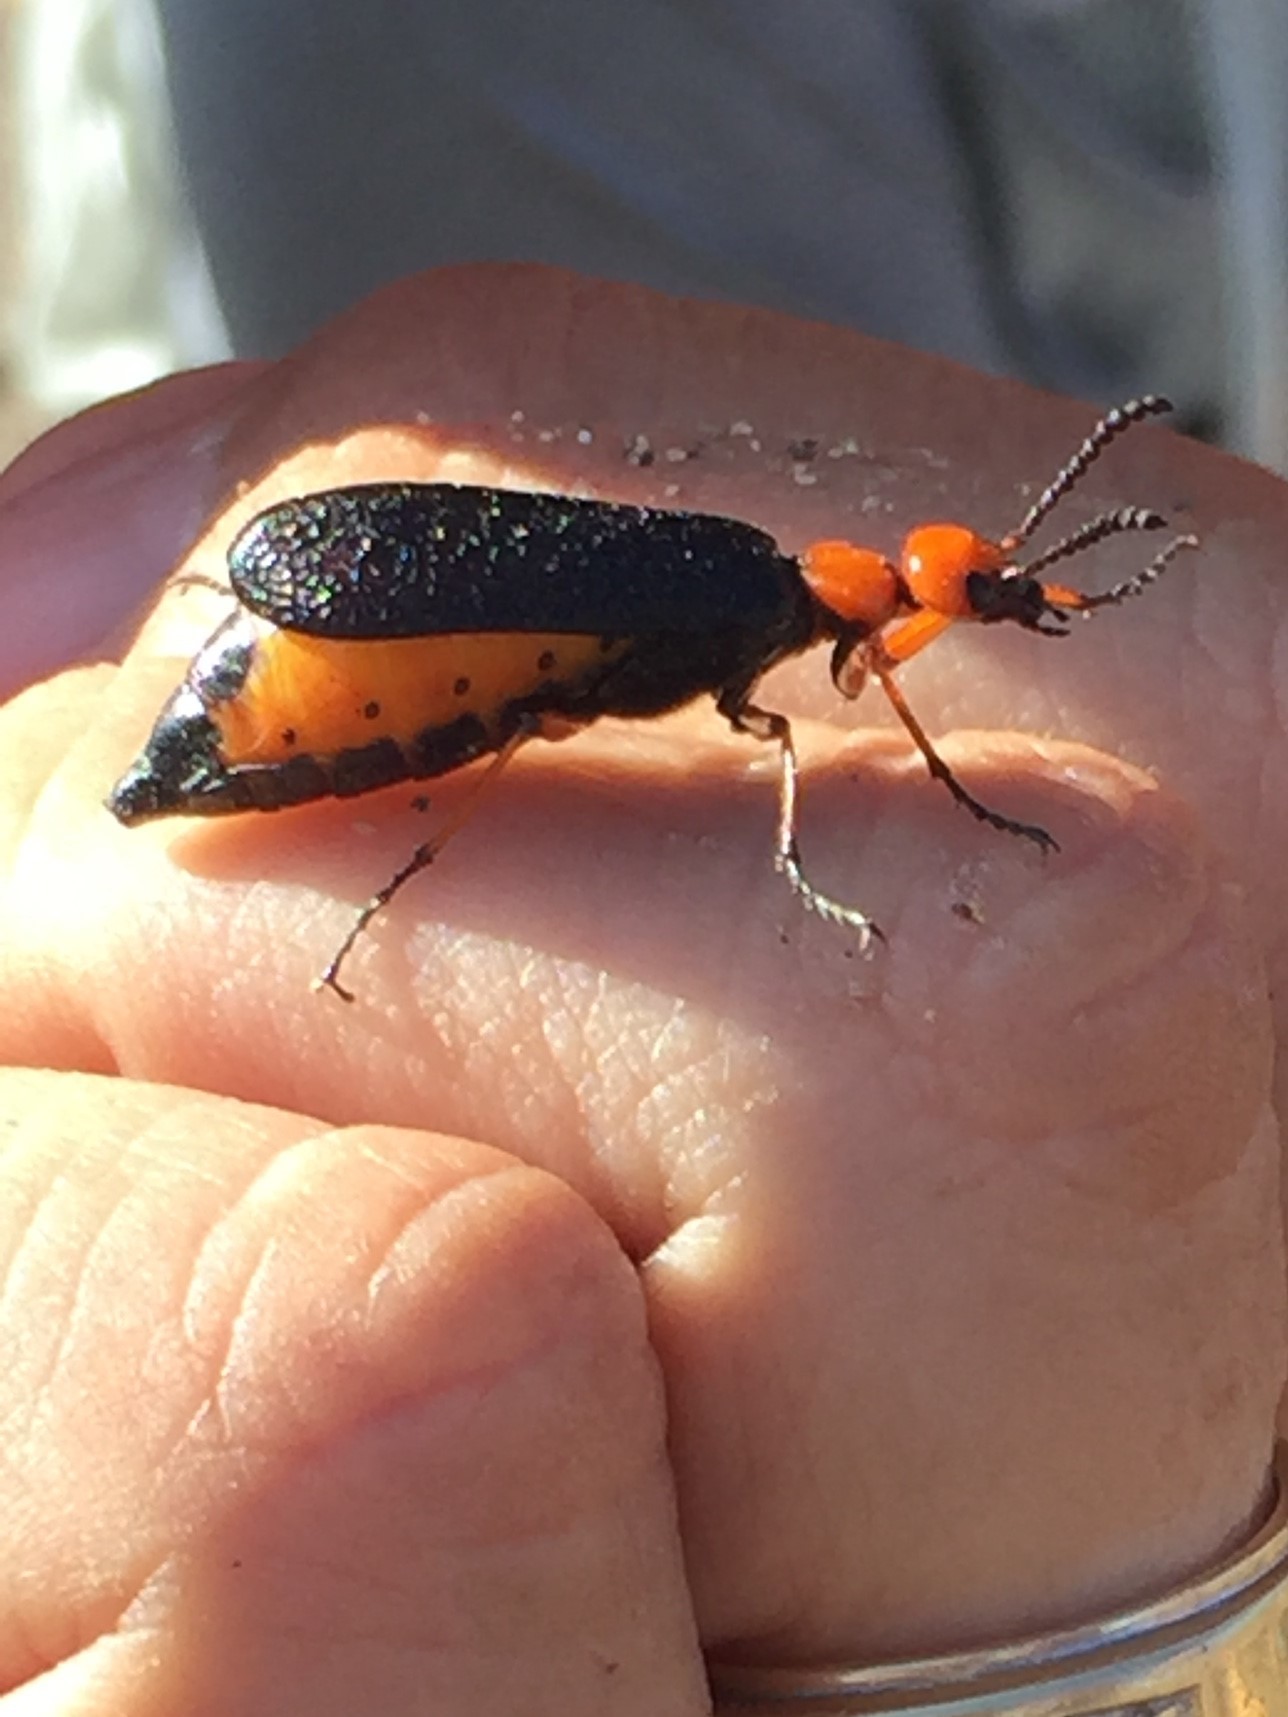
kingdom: Animalia
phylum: Arthropoda
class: Insecta
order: Coleoptera
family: Meloidae
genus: Lytta
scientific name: Lytta magister
